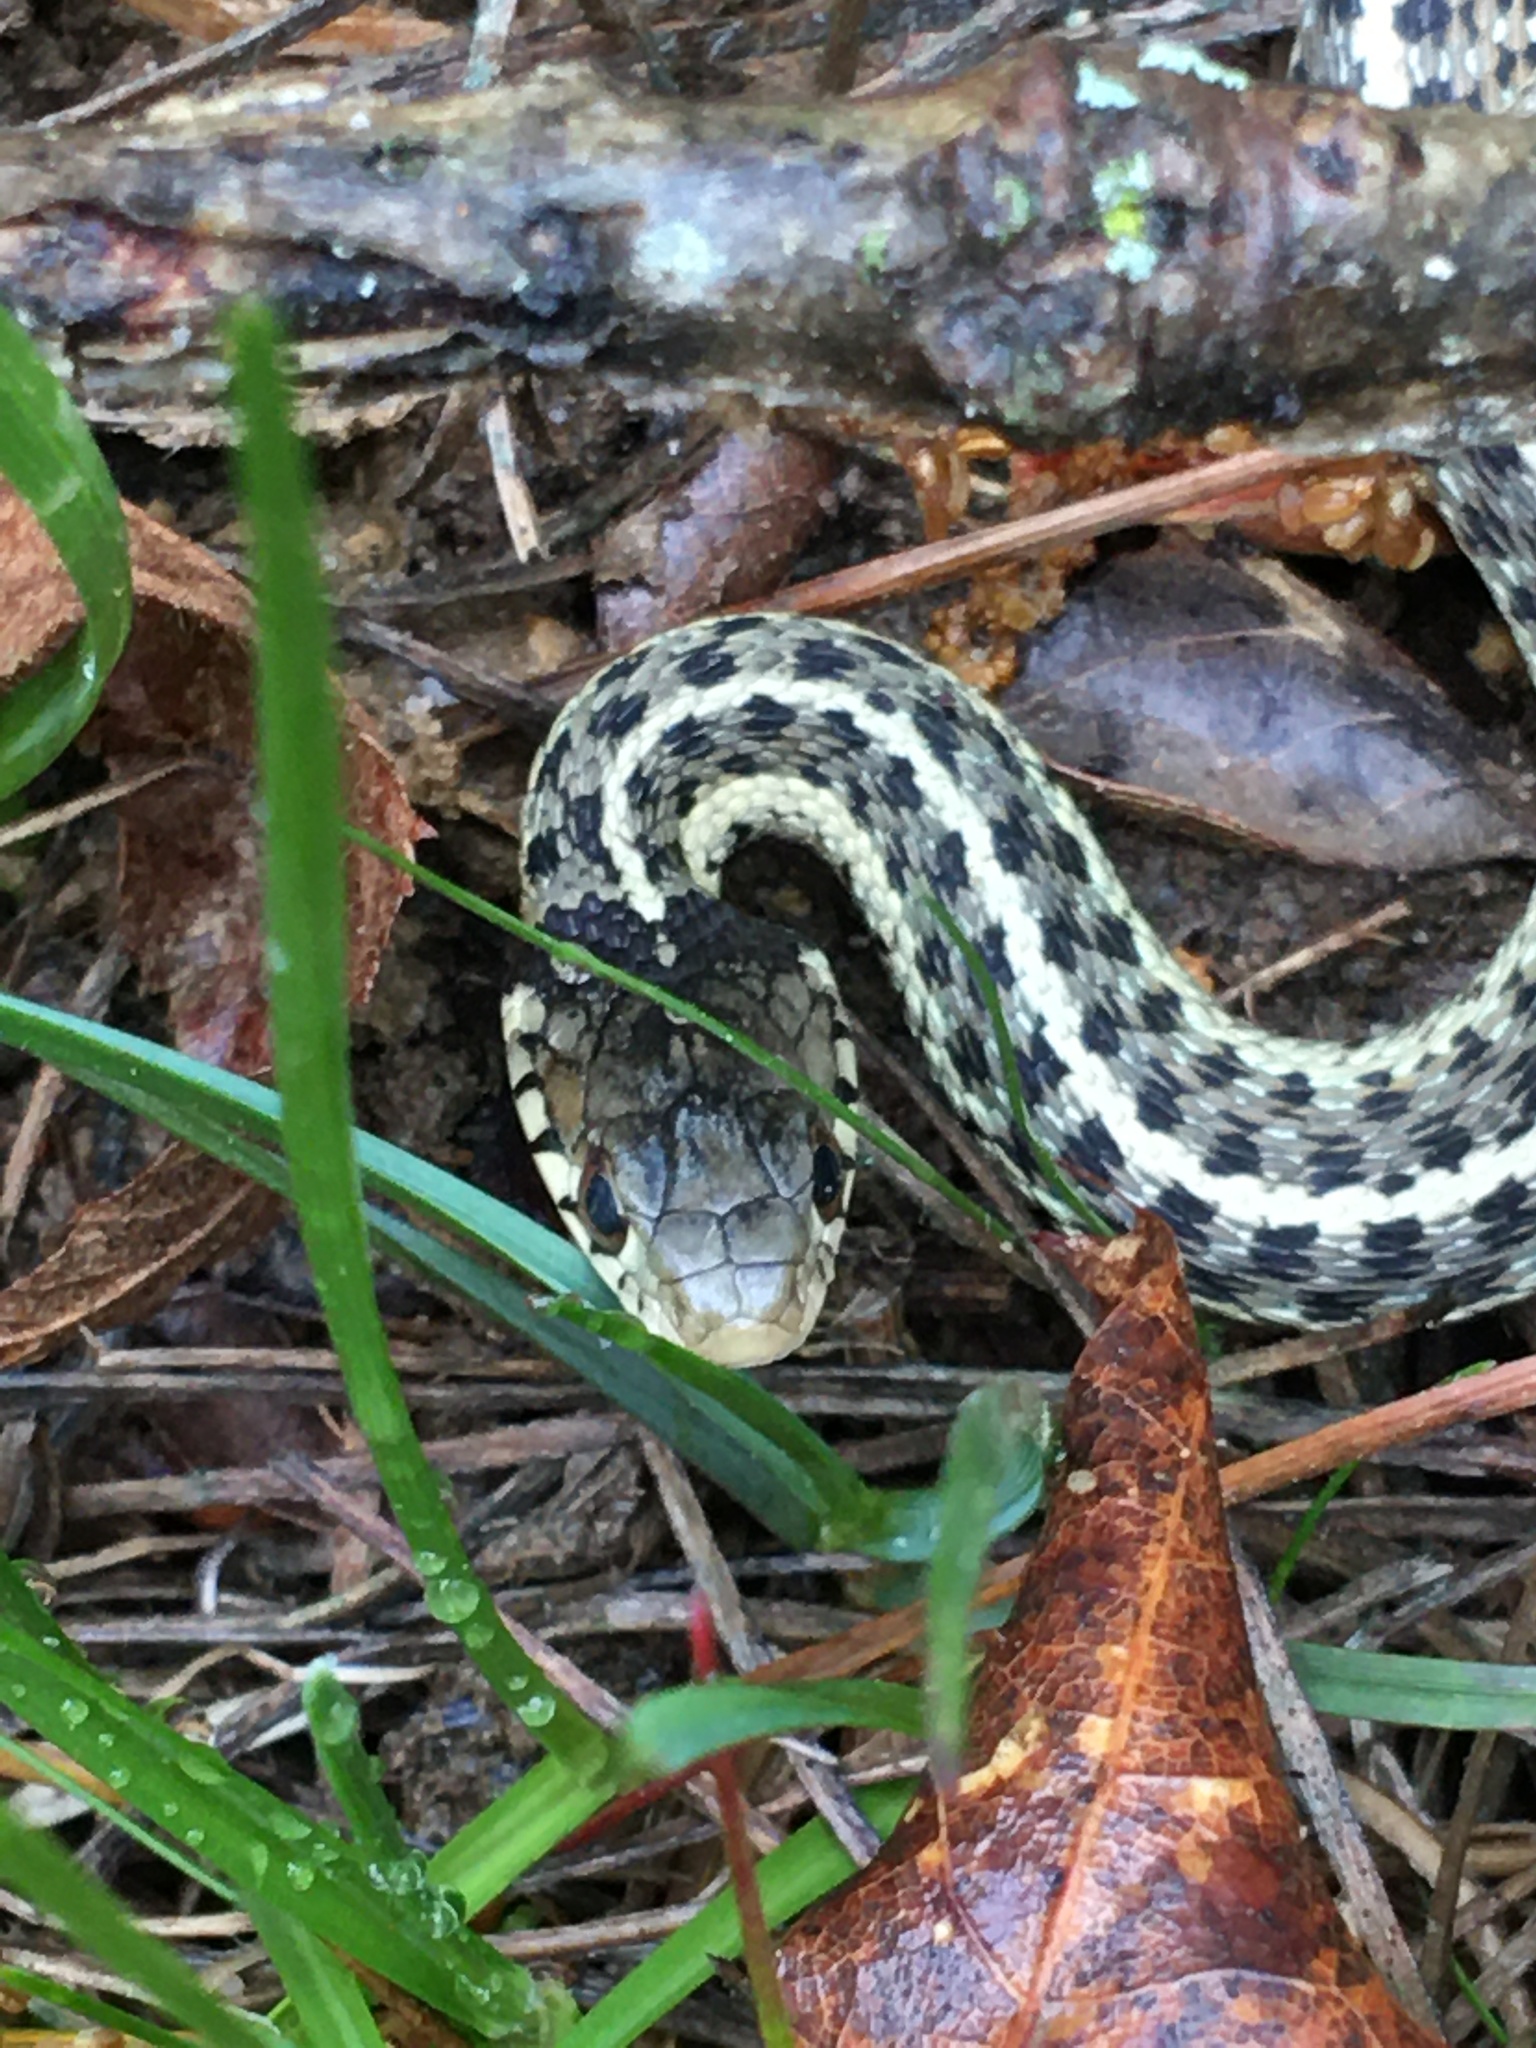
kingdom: Animalia
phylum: Chordata
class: Squamata
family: Colubridae
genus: Thamnophis
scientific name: Thamnophis sirtalis
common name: Common garter snake
